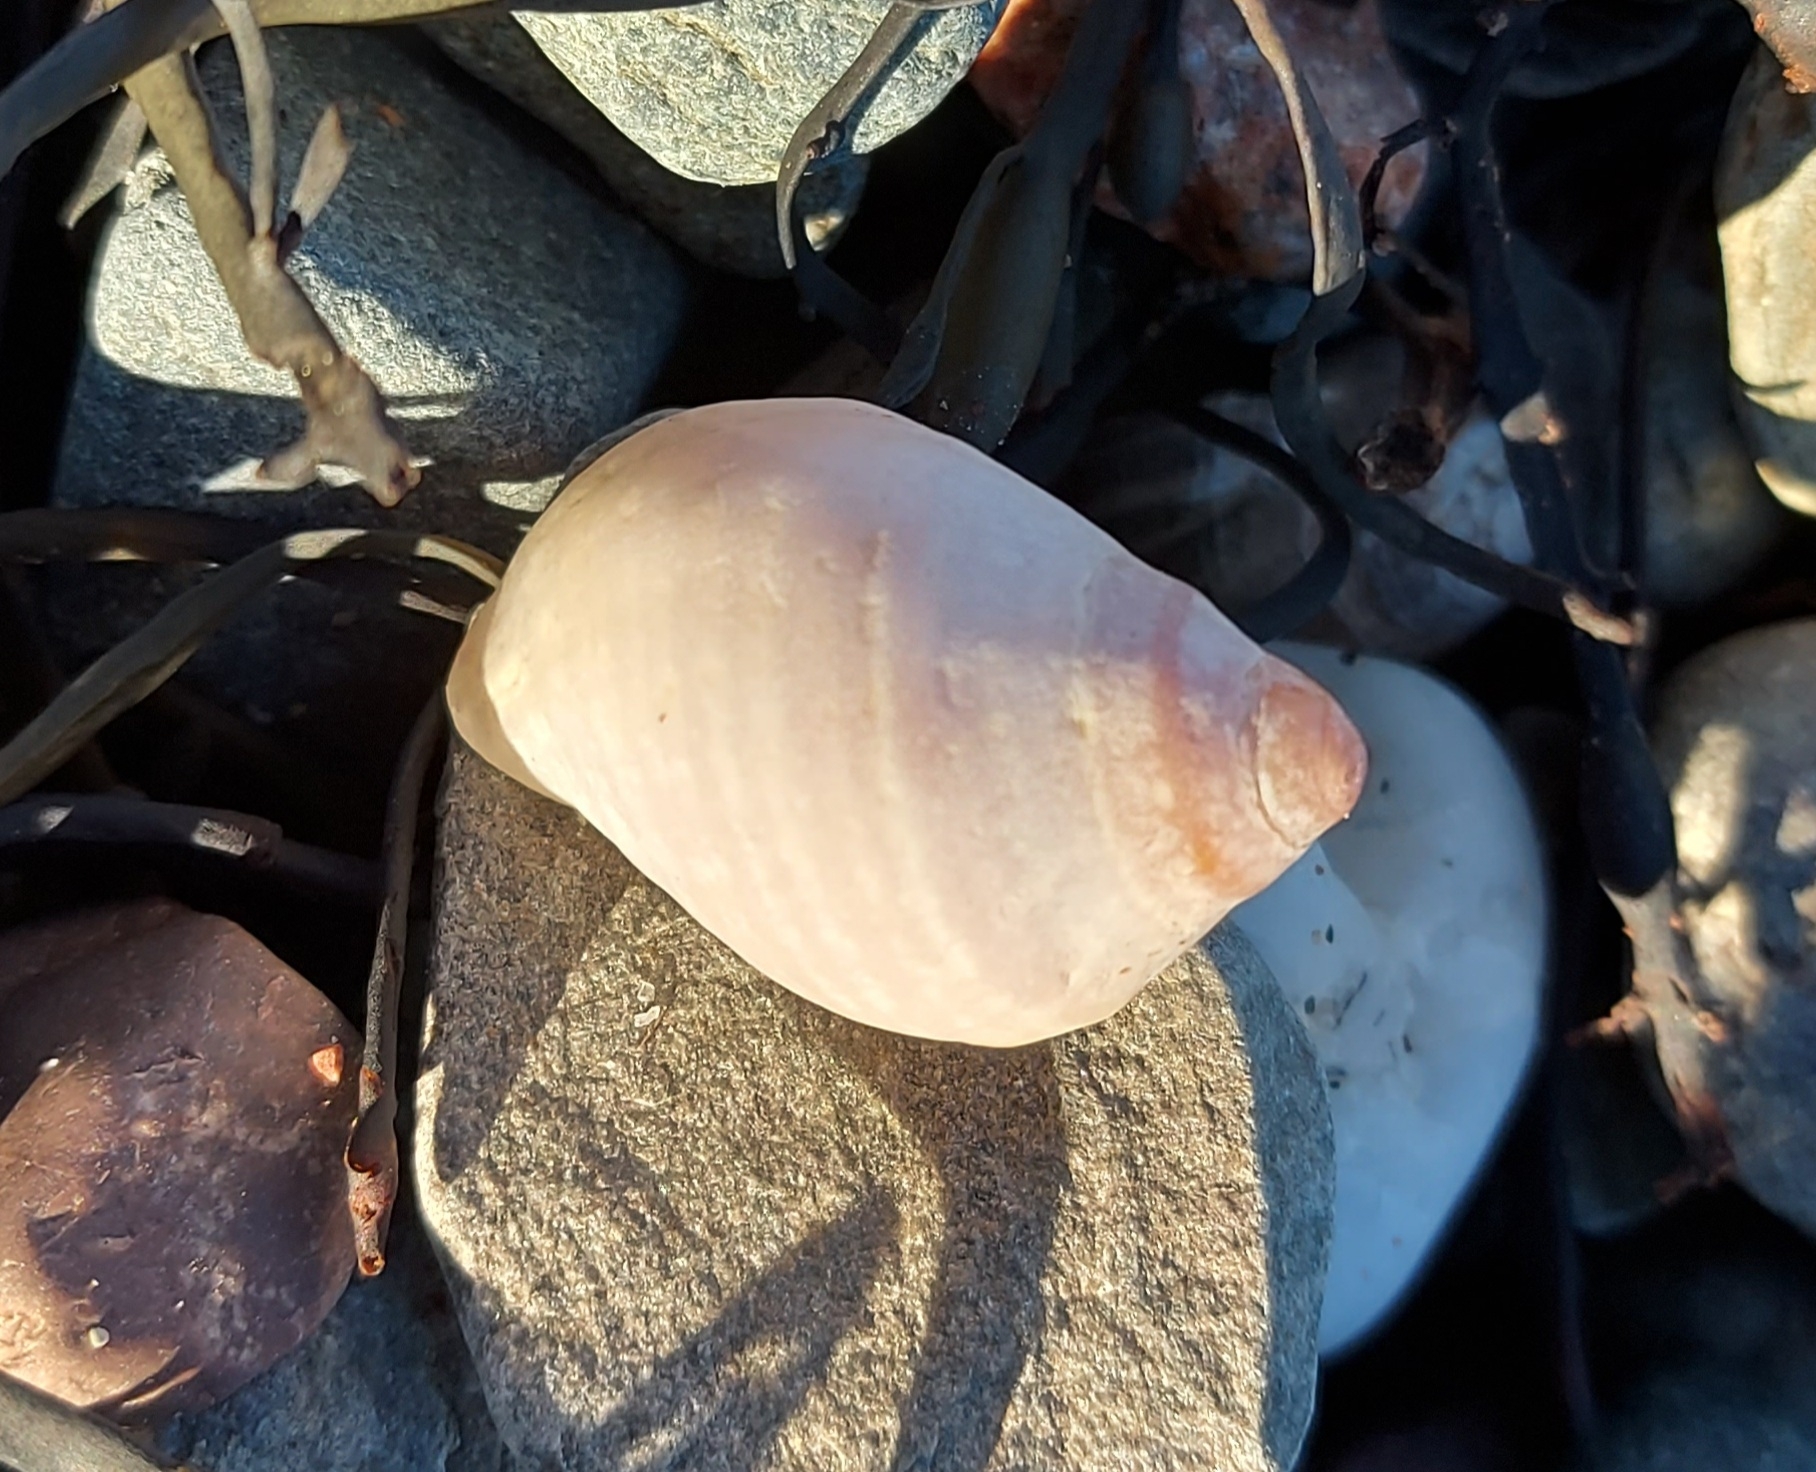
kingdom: Animalia
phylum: Mollusca
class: Gastropoda
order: Neogastropoda
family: Muricidae
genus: Nucella
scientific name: Nucella lapillus
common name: Dog whelk
